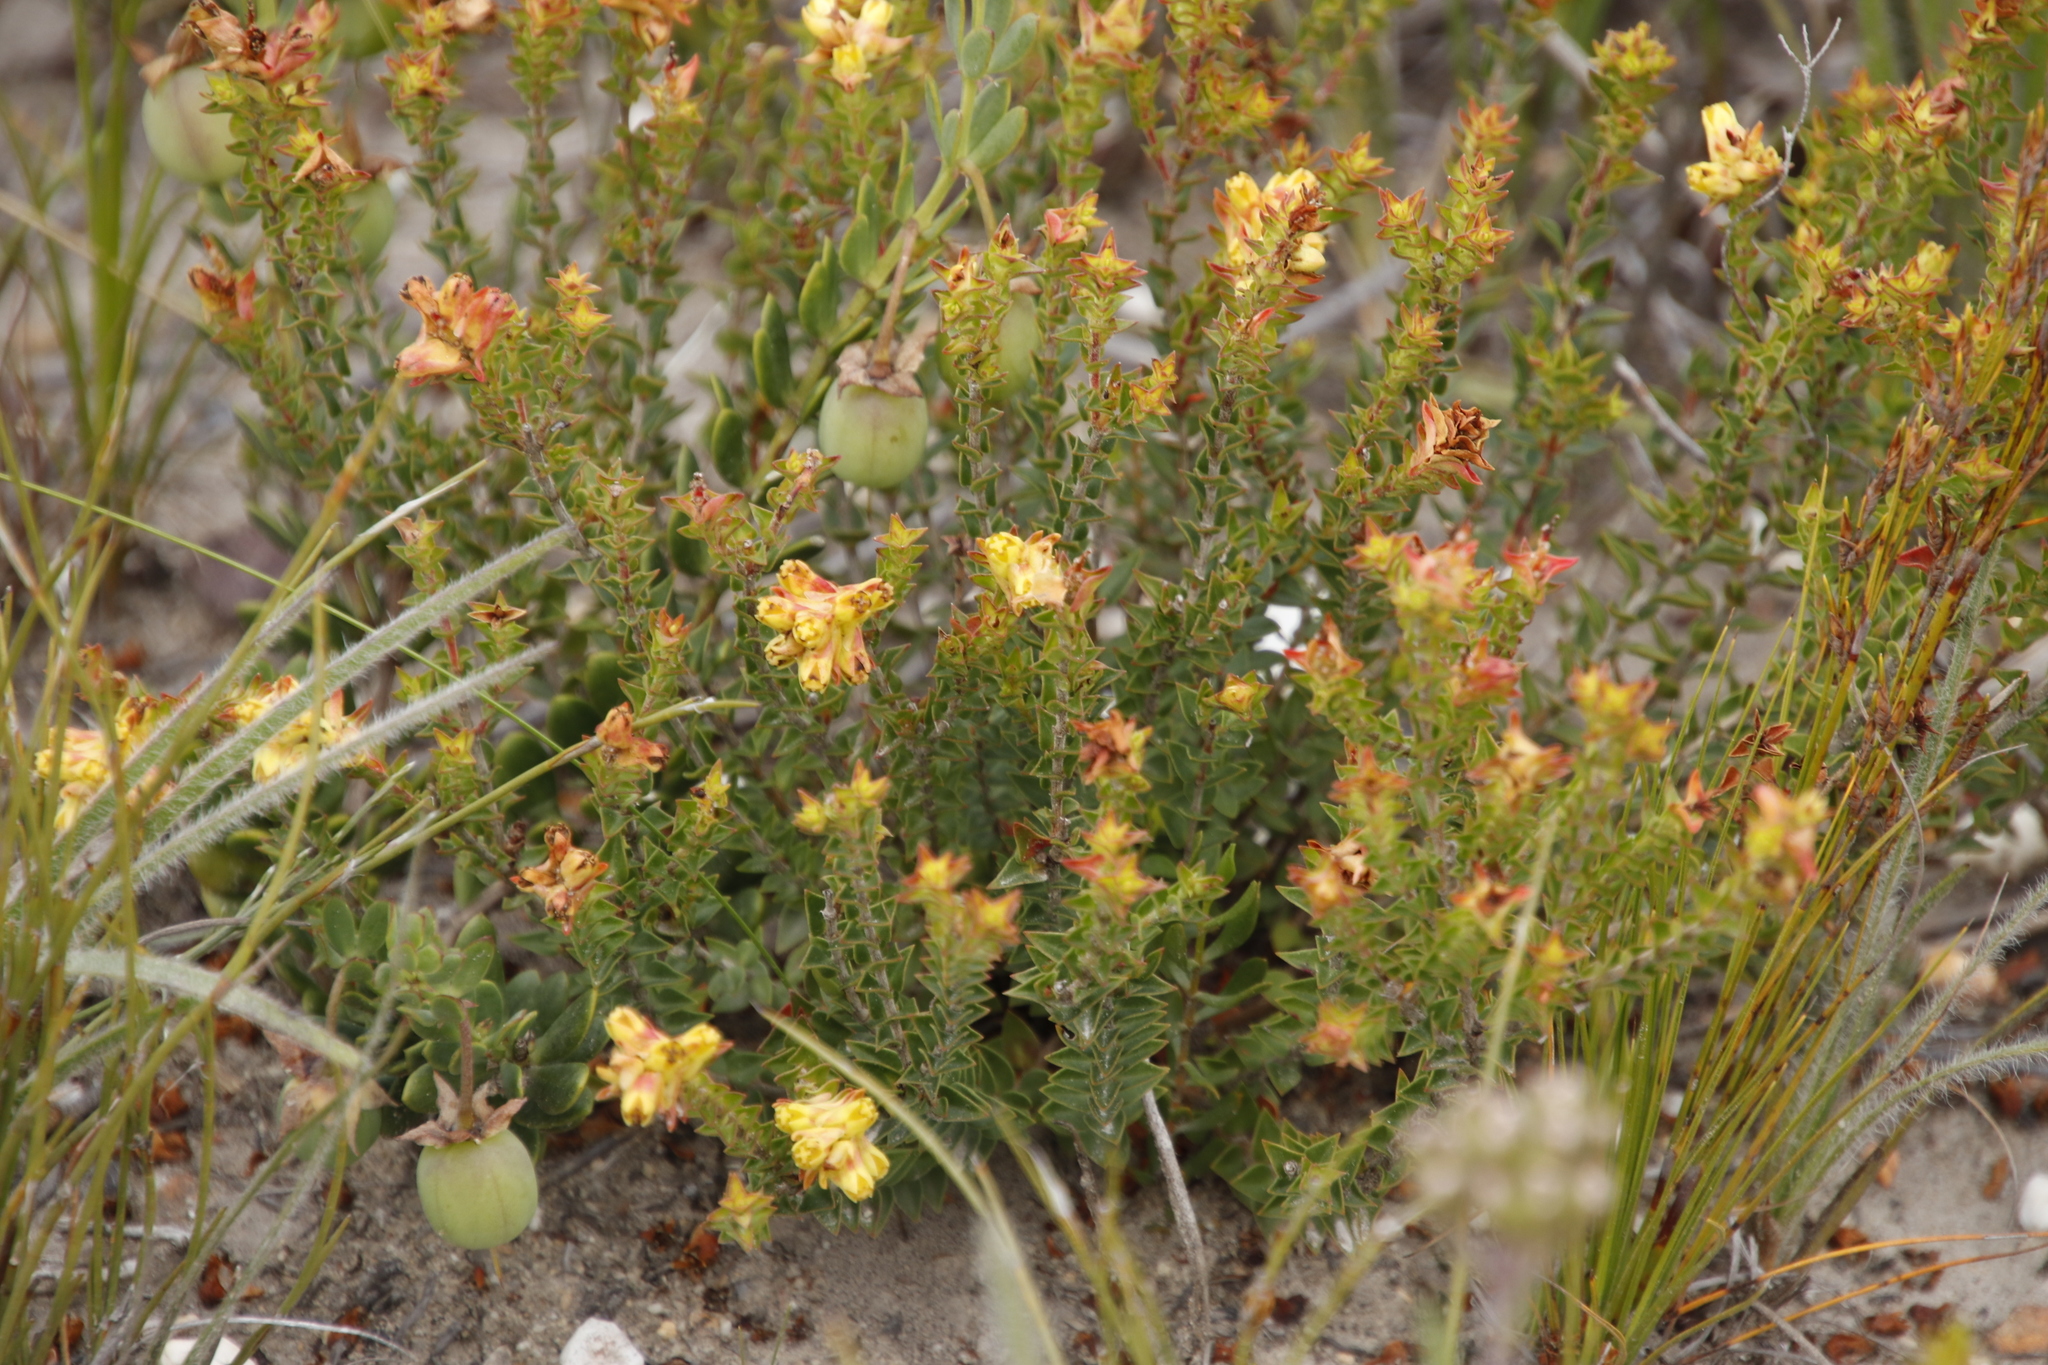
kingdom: Plantae
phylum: Tracheophyta
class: Magnoliopsida
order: Myrtales
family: Penaeaceae
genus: Penaea
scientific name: Penaea mucronata
